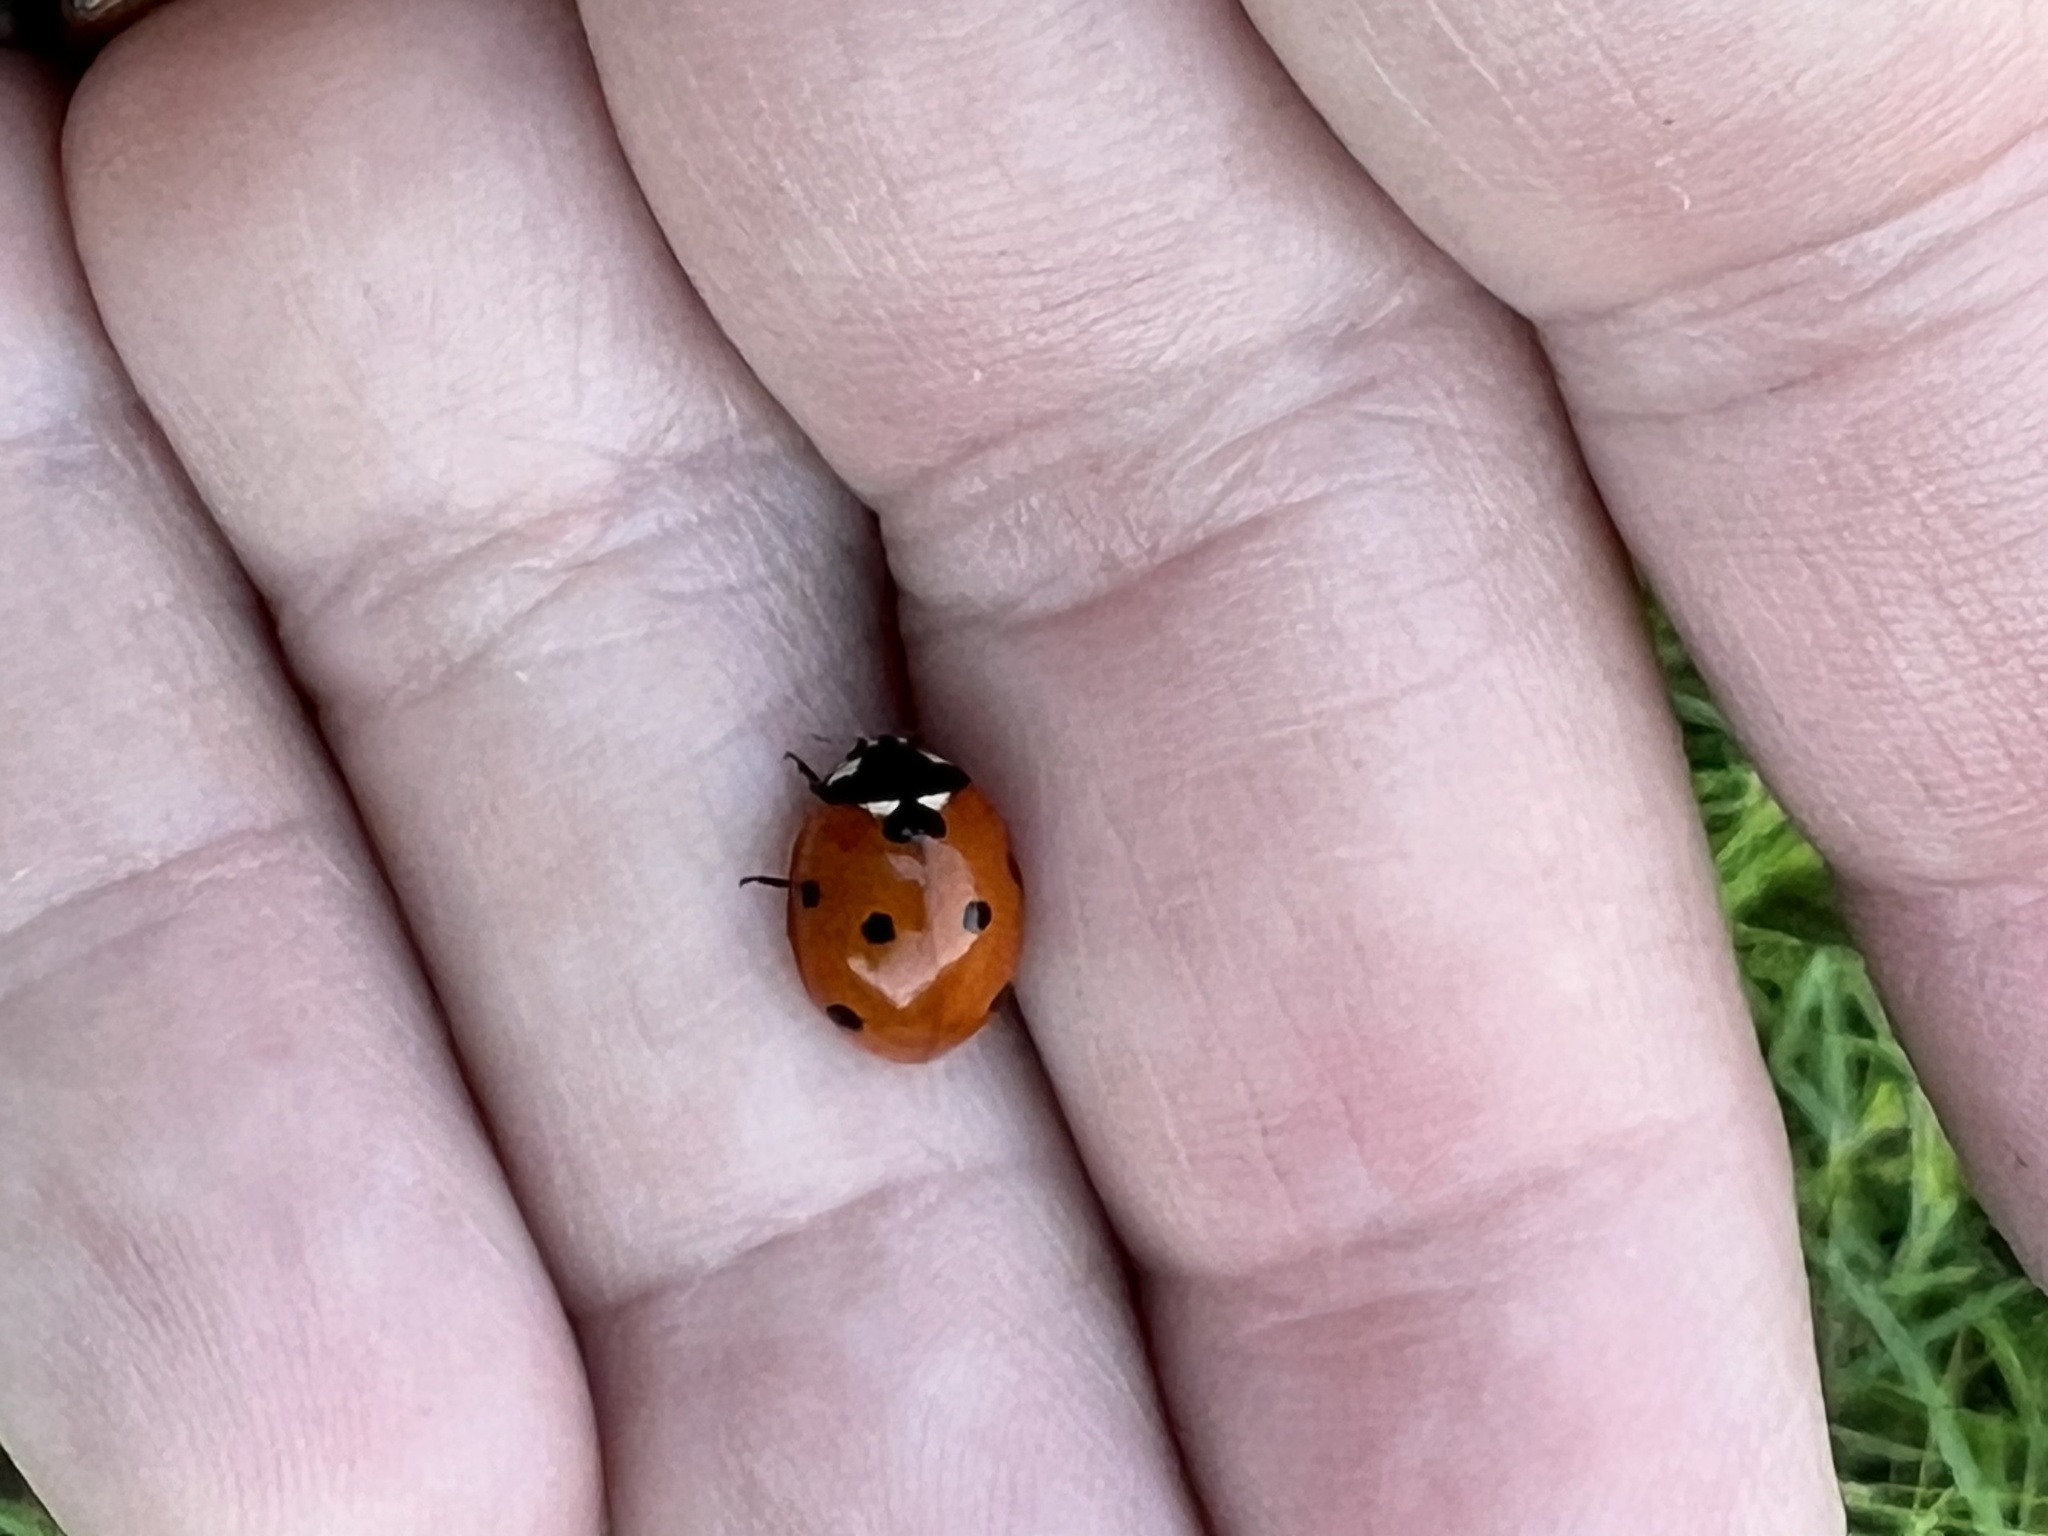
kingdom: Animalia
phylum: Arthropoda
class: Insecta
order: Coleoptera
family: Coccinellidae
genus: Coccinella
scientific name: Coccinella septempunctata
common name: Sevenspotted lady beetle
